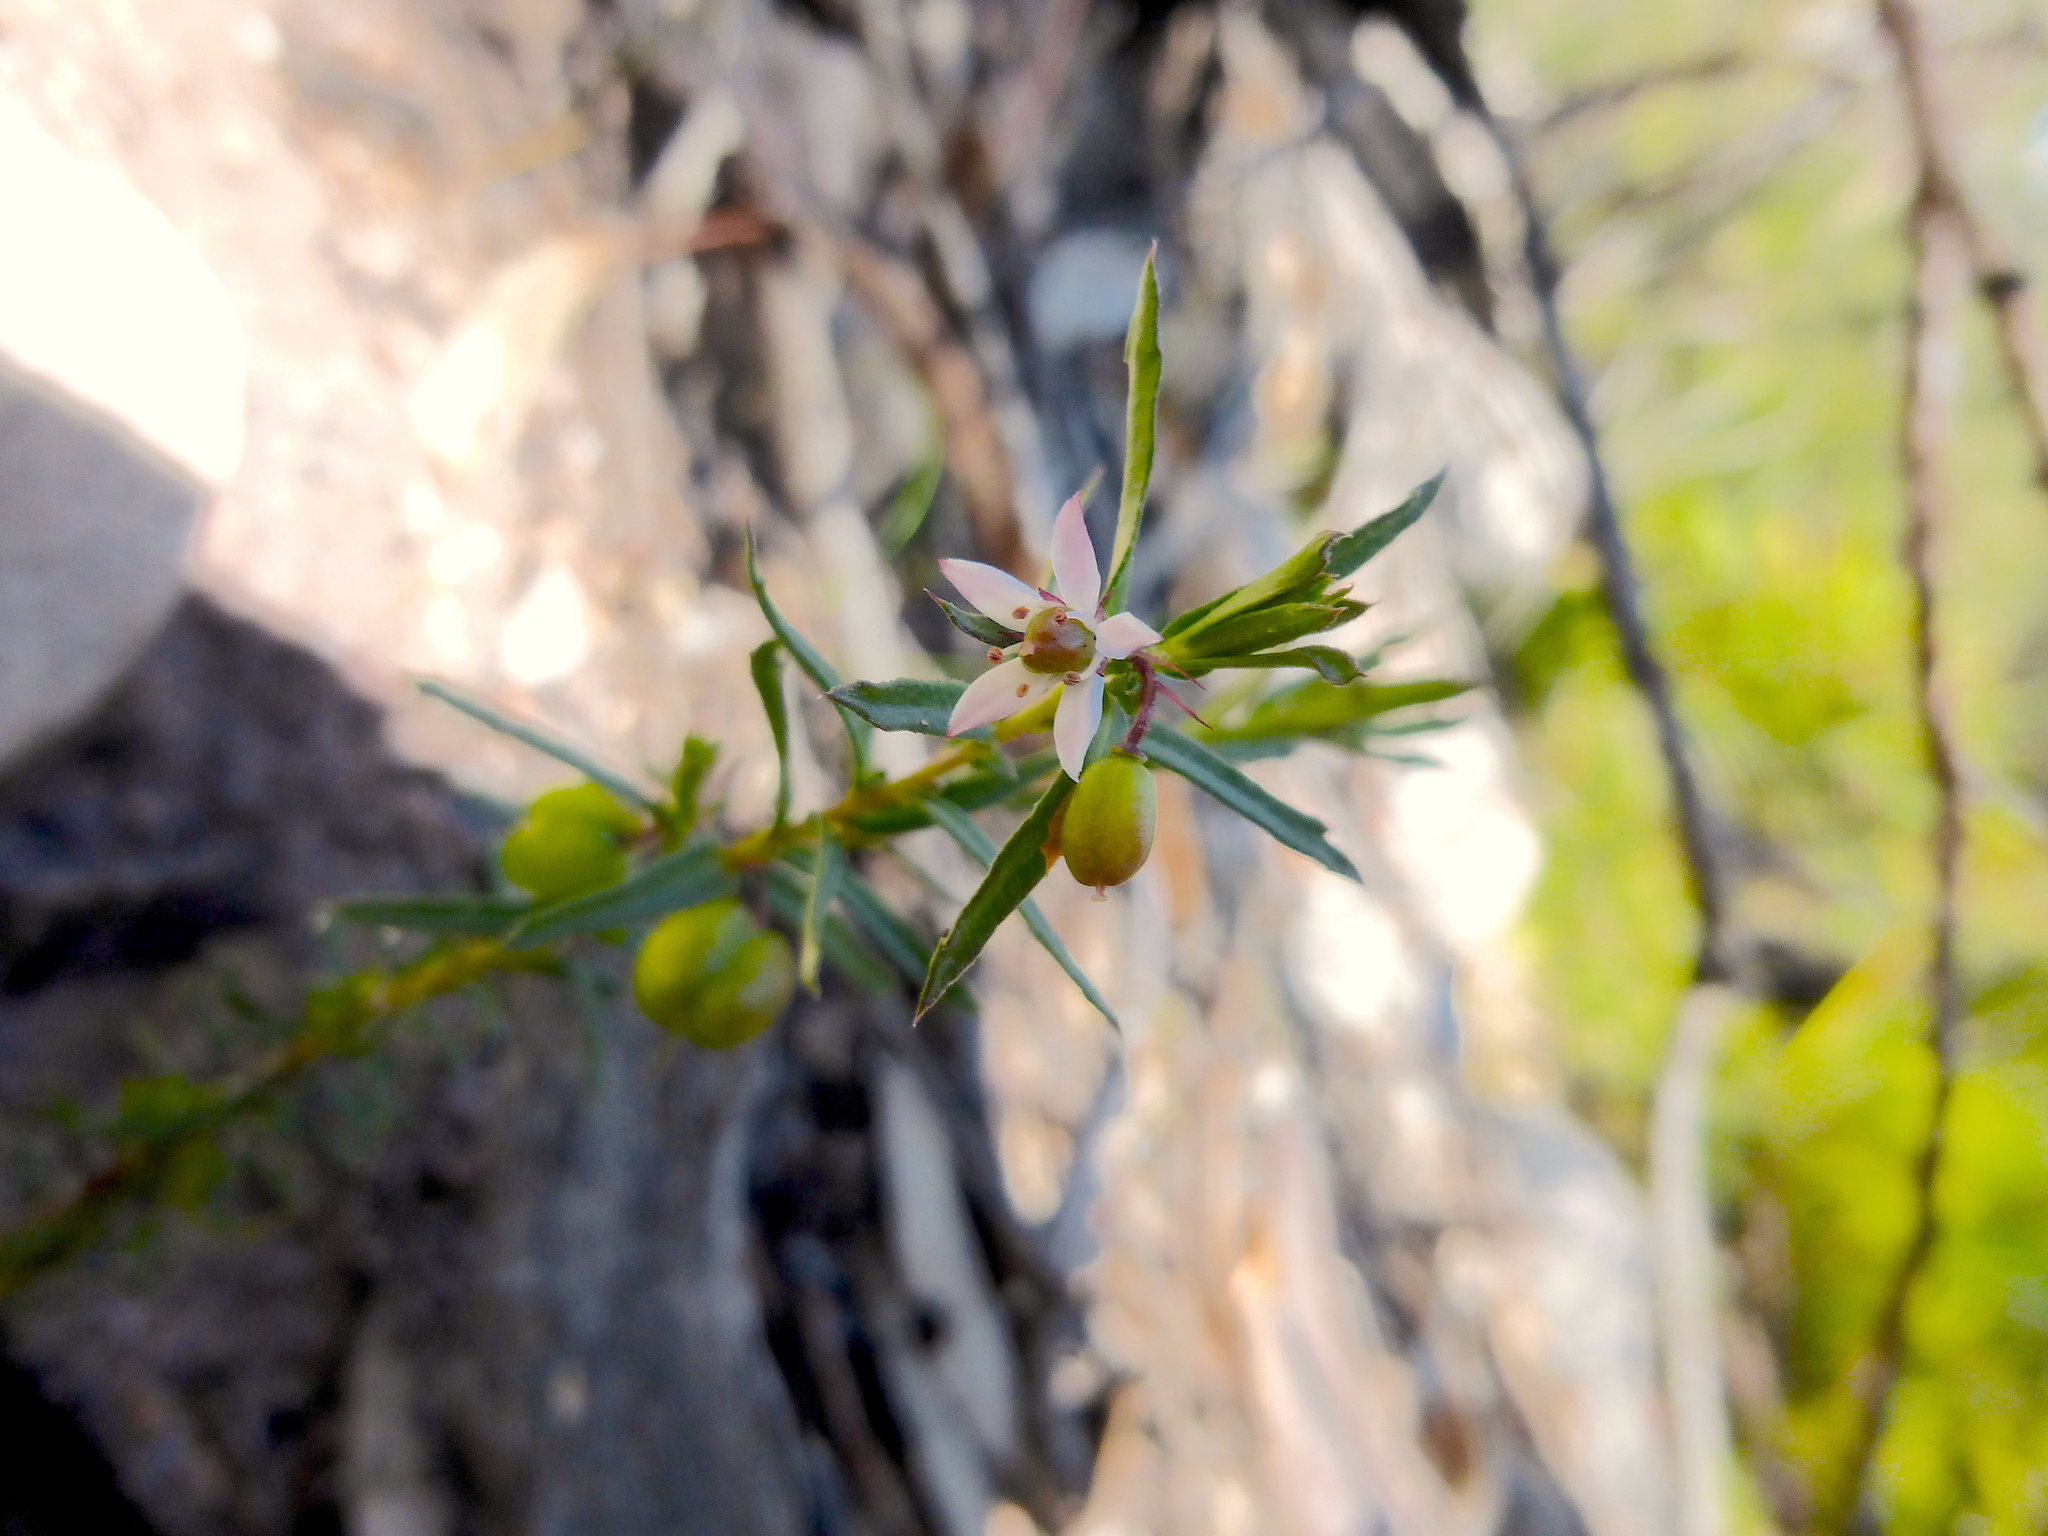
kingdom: Plantae
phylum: Tracheophyta
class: Magnoliopsida
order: Apiales
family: Pittosporaceae
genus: Rhytidosporum
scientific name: Rhytidosporum procumbens
